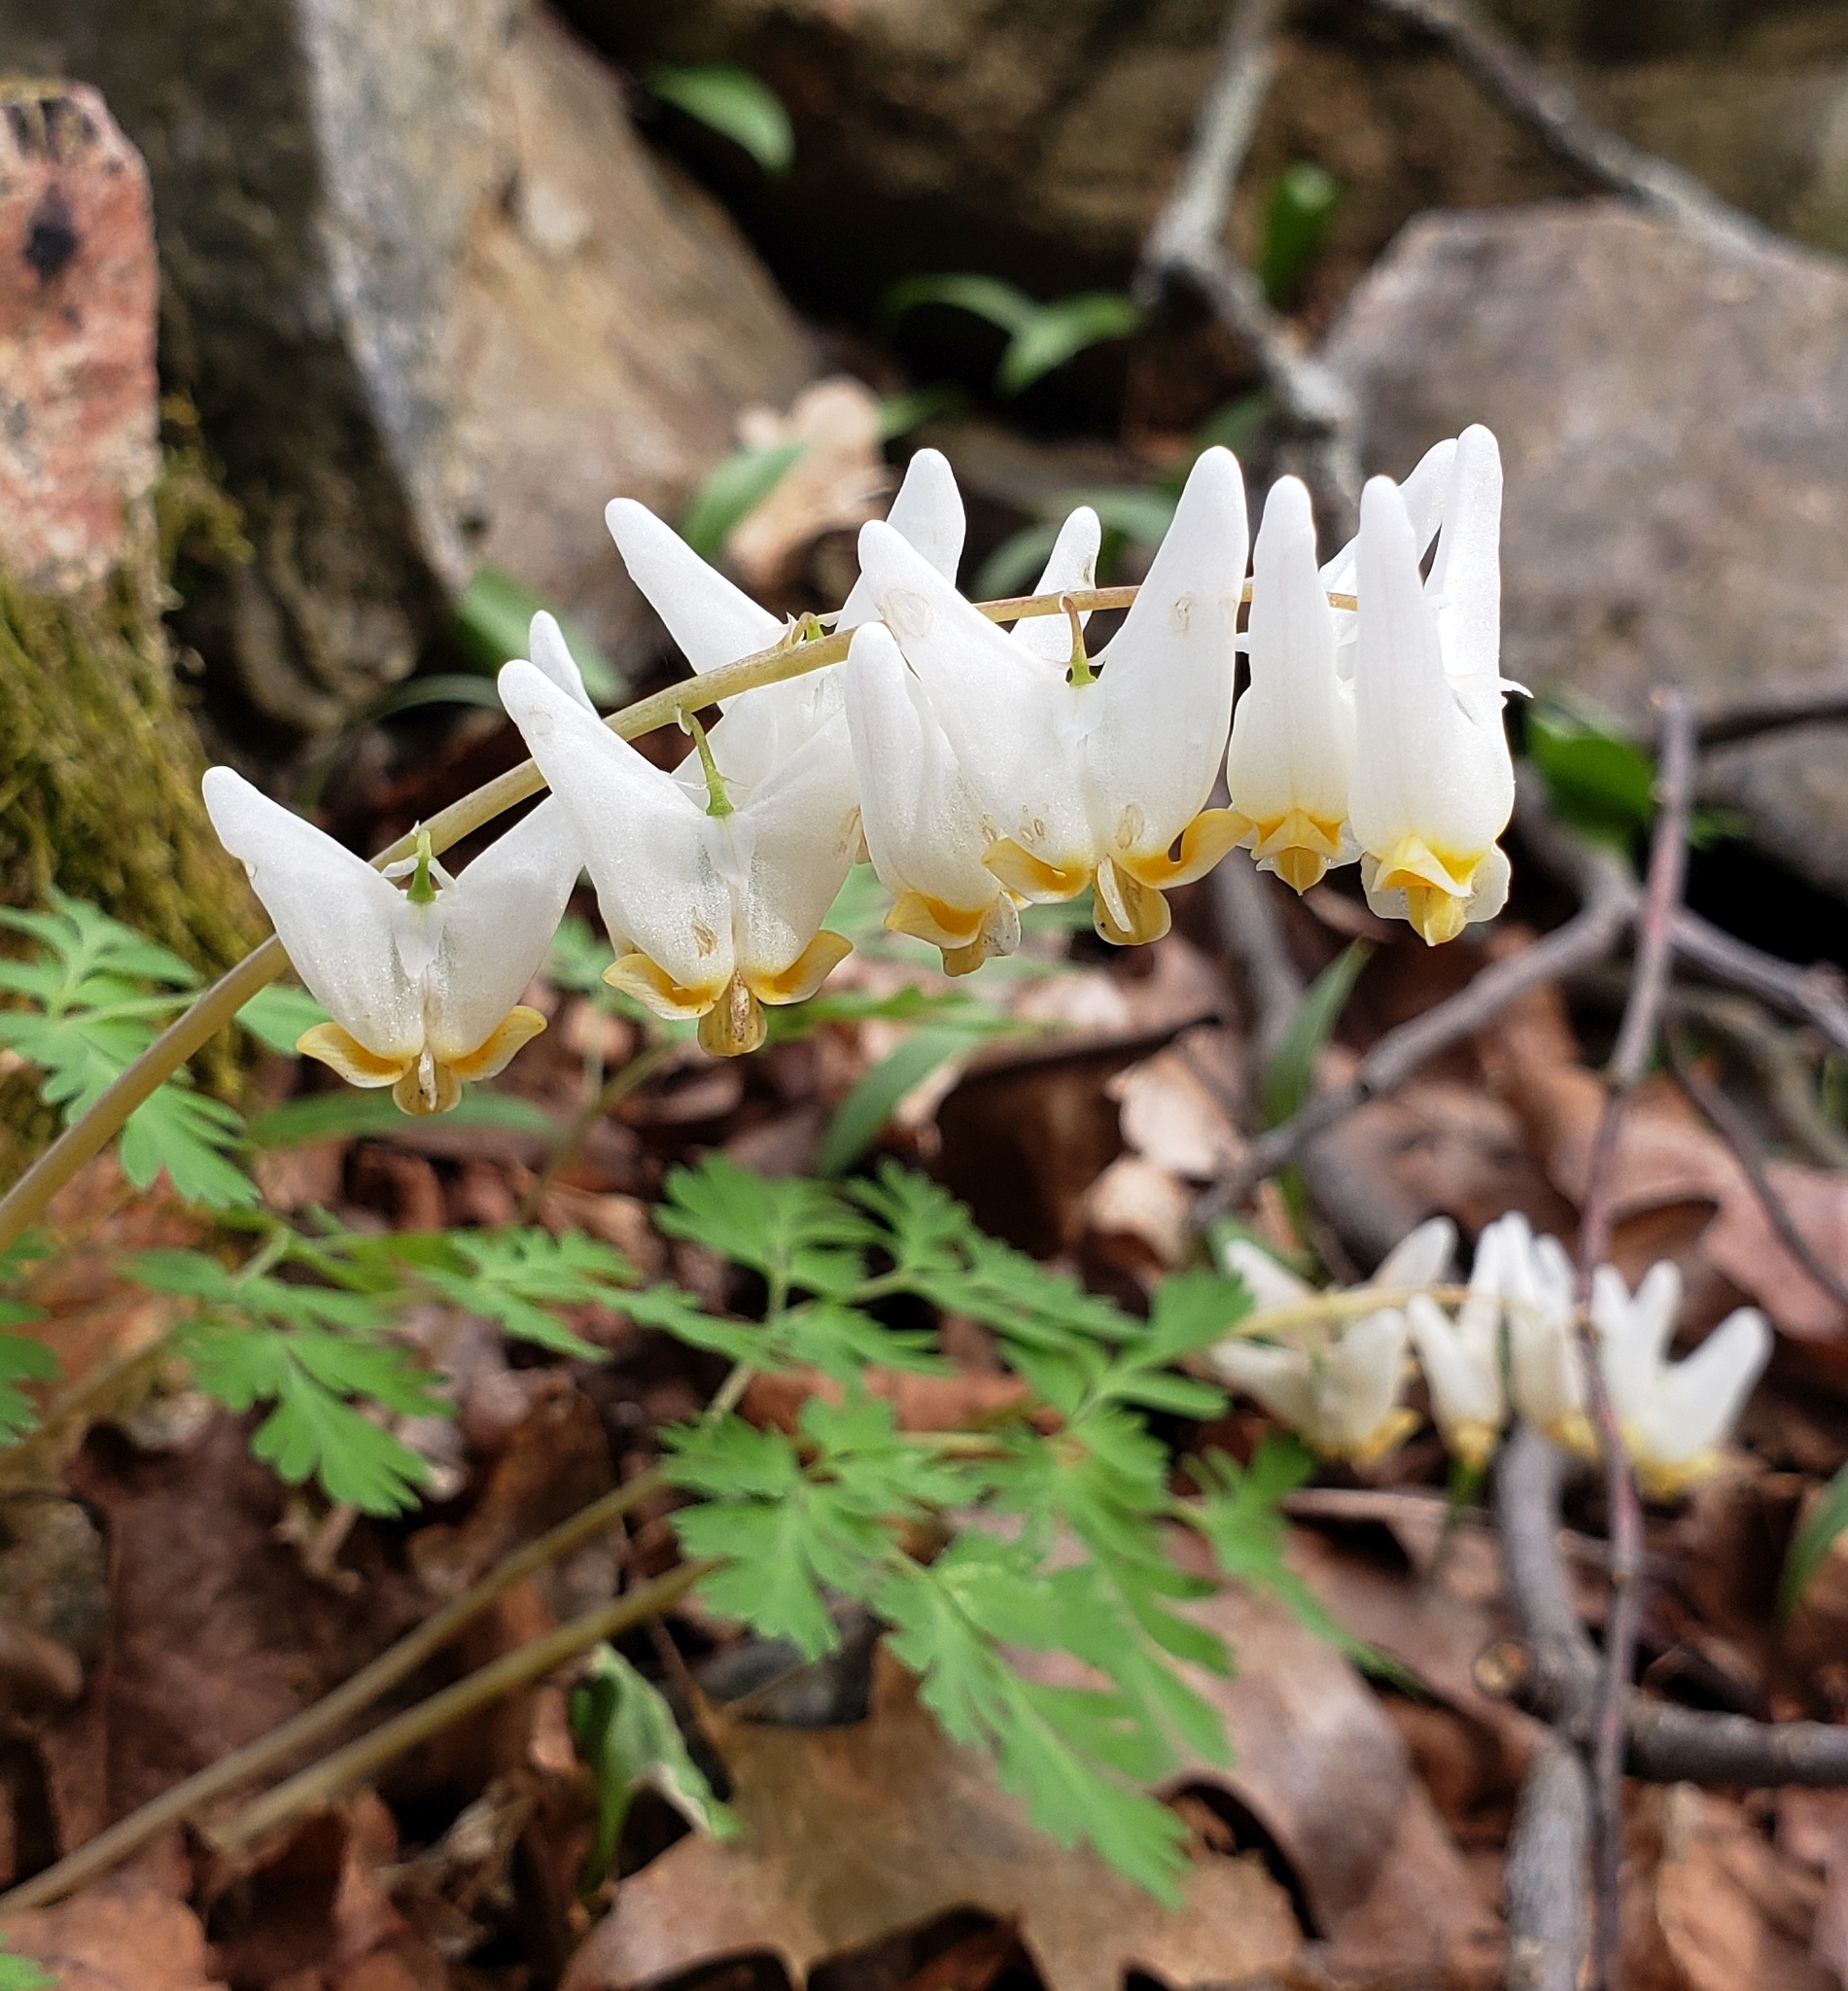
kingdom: Plantae
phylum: Tracheophyta
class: Magnoliopsida
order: Ranunculales
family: Papaveraceae
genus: Dicentra
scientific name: Dicentra cucullaria
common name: Dutchman's breeches
